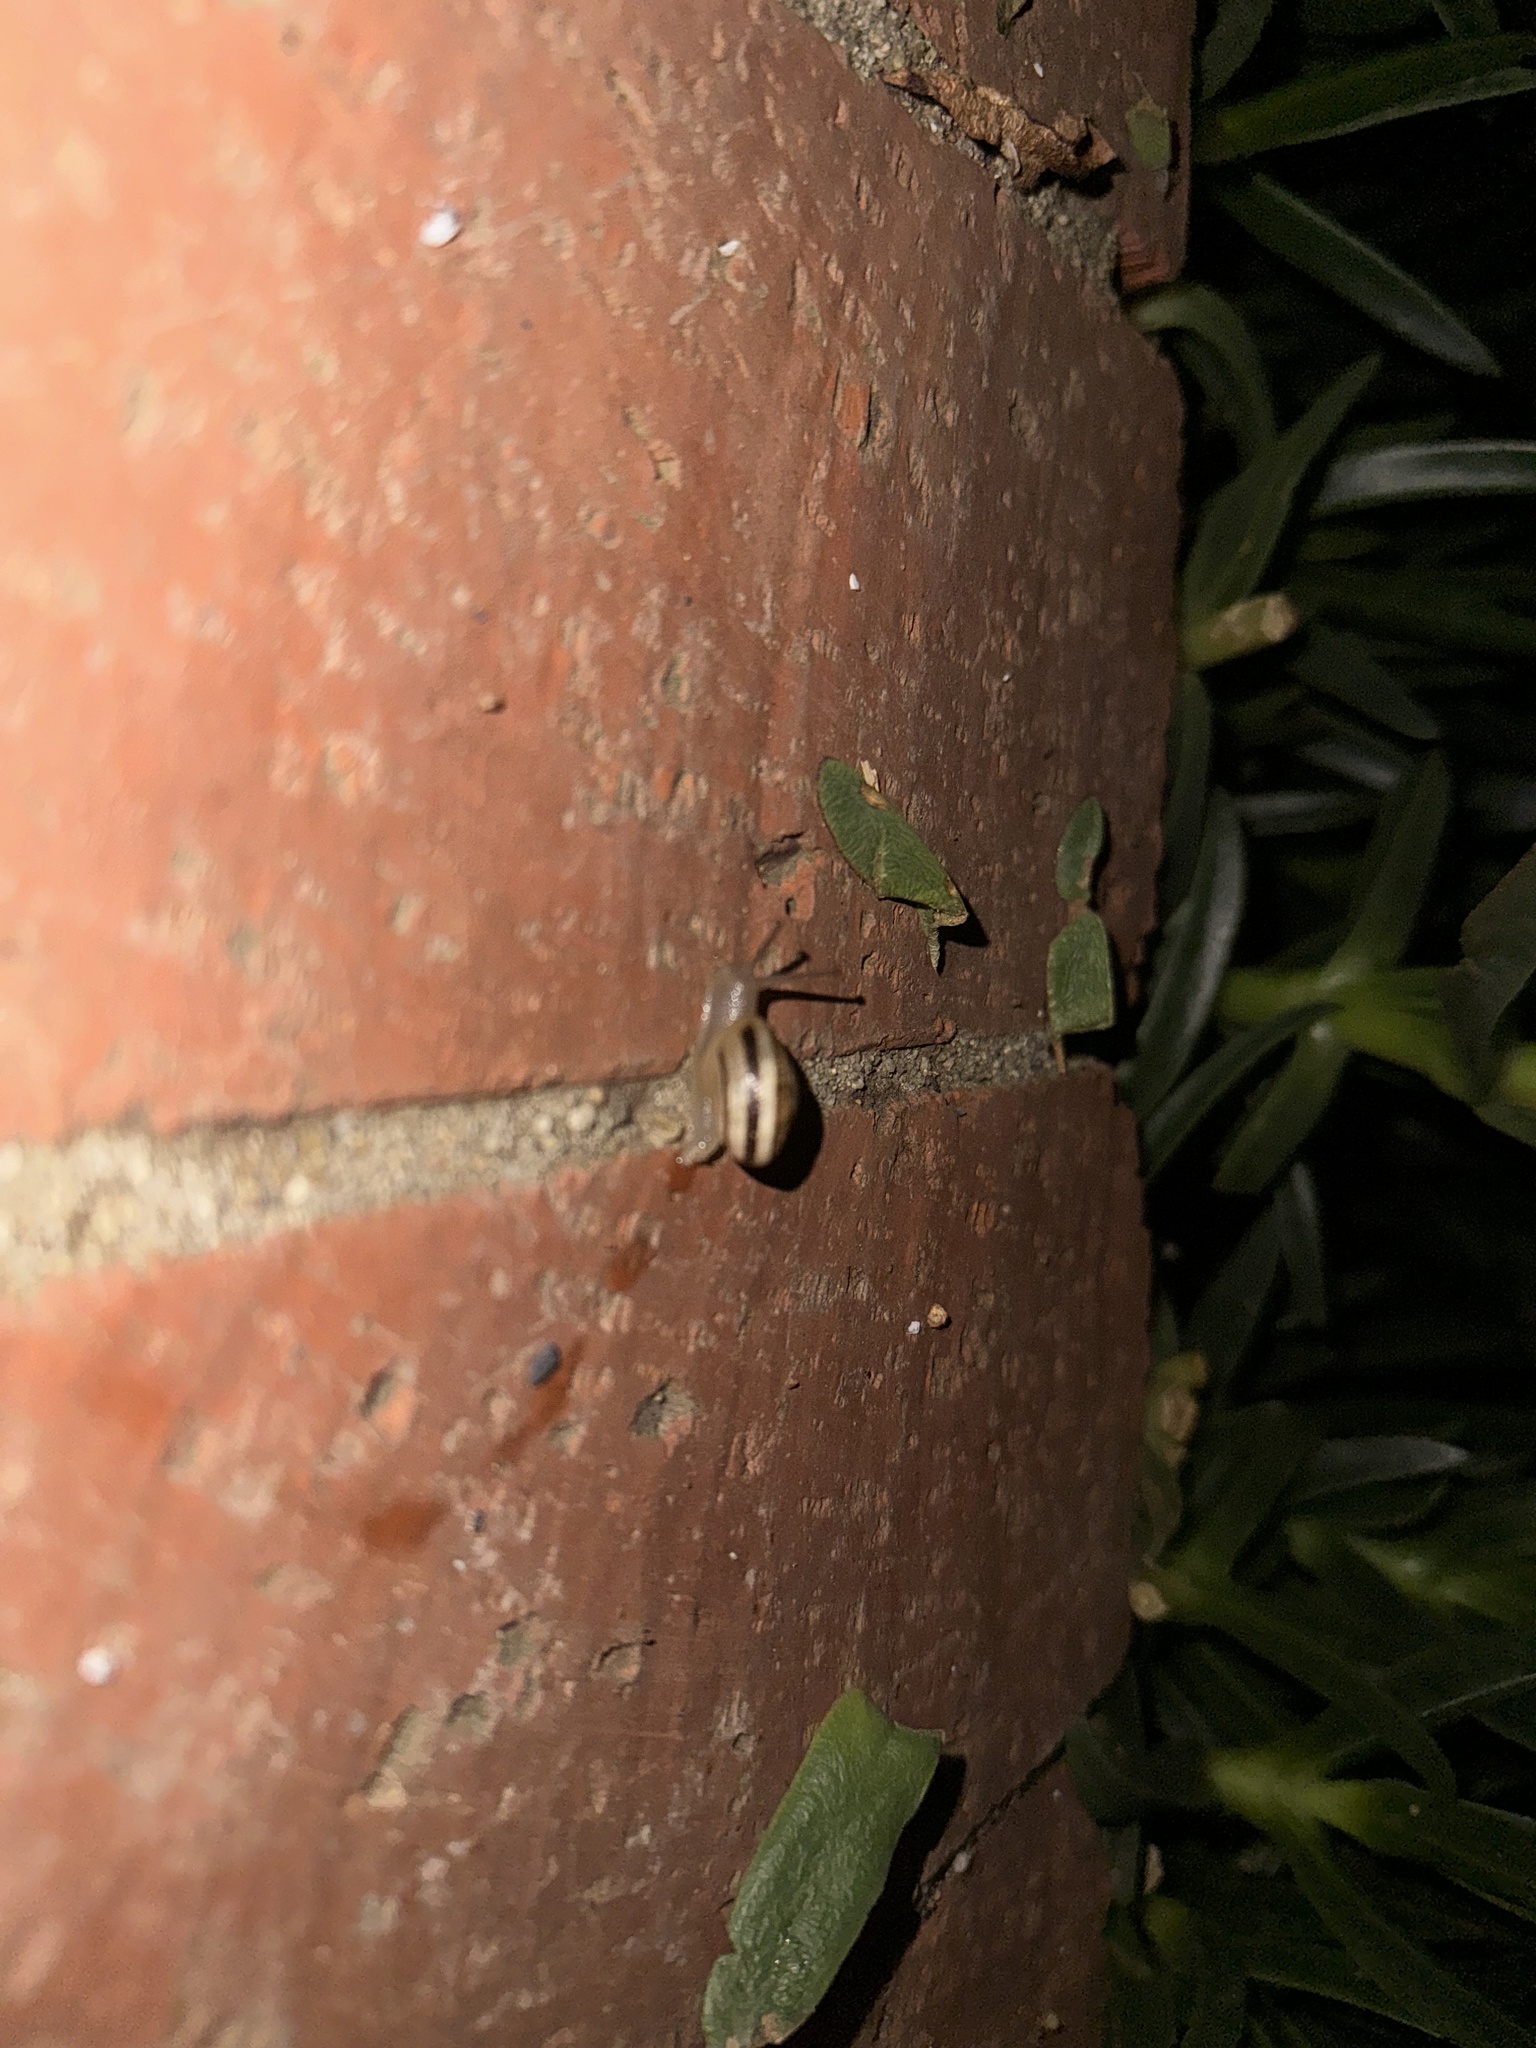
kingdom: Animalia
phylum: Mollusca
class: Gastropoda
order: Stylommatophora
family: Helicidae
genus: Otala
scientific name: Otala lactea
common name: Milk snail
